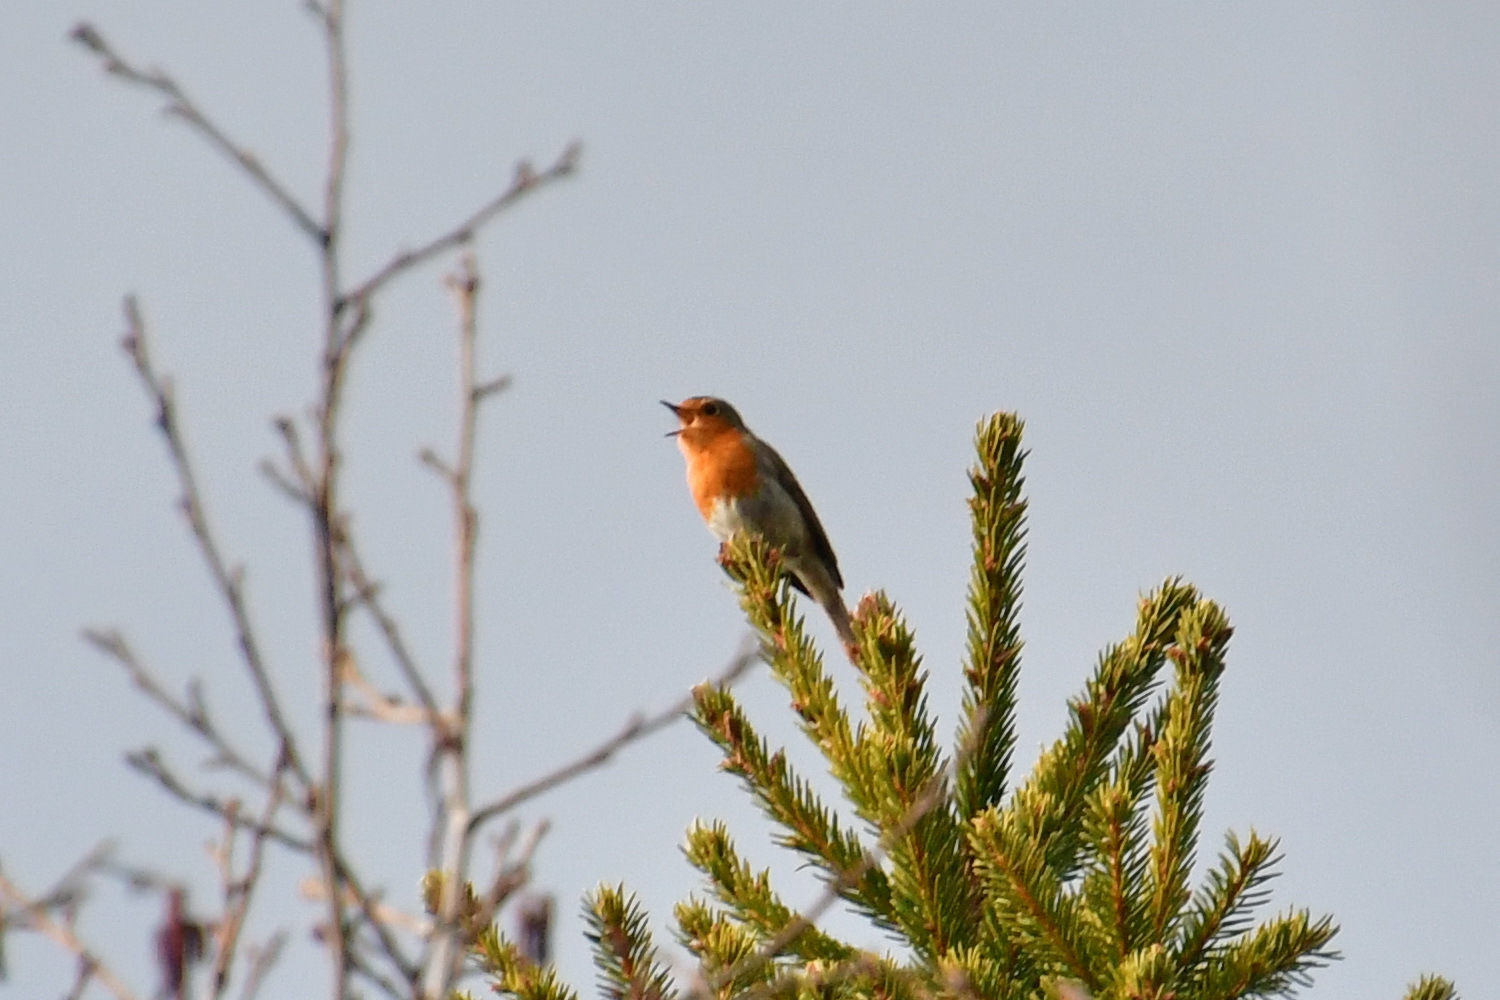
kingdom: Animalia
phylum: Chordata
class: Aves
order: Passeriformes
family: Muscicapidae
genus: Erithacus
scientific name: Erithacus rubecula
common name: European robin
